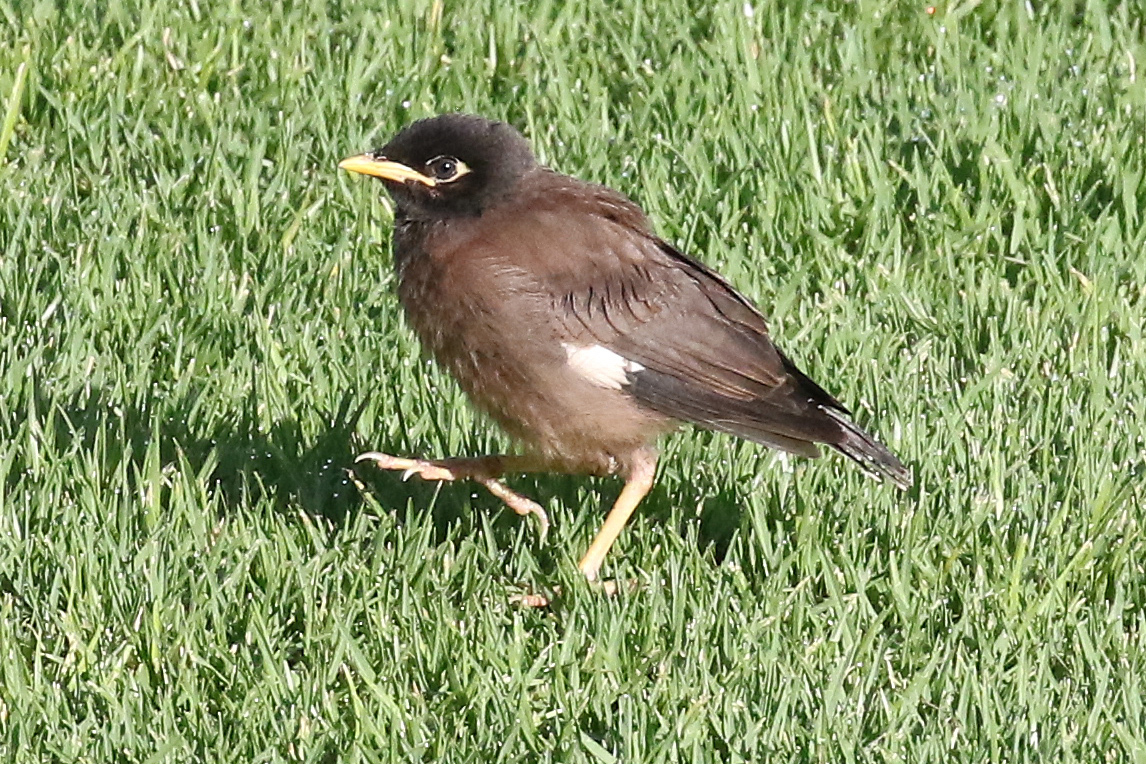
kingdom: Animalia
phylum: Chordata
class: Aves
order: Passeriformes
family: Sturnidae
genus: Acridotheres
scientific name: Acridotheres tristis
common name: Common myna
